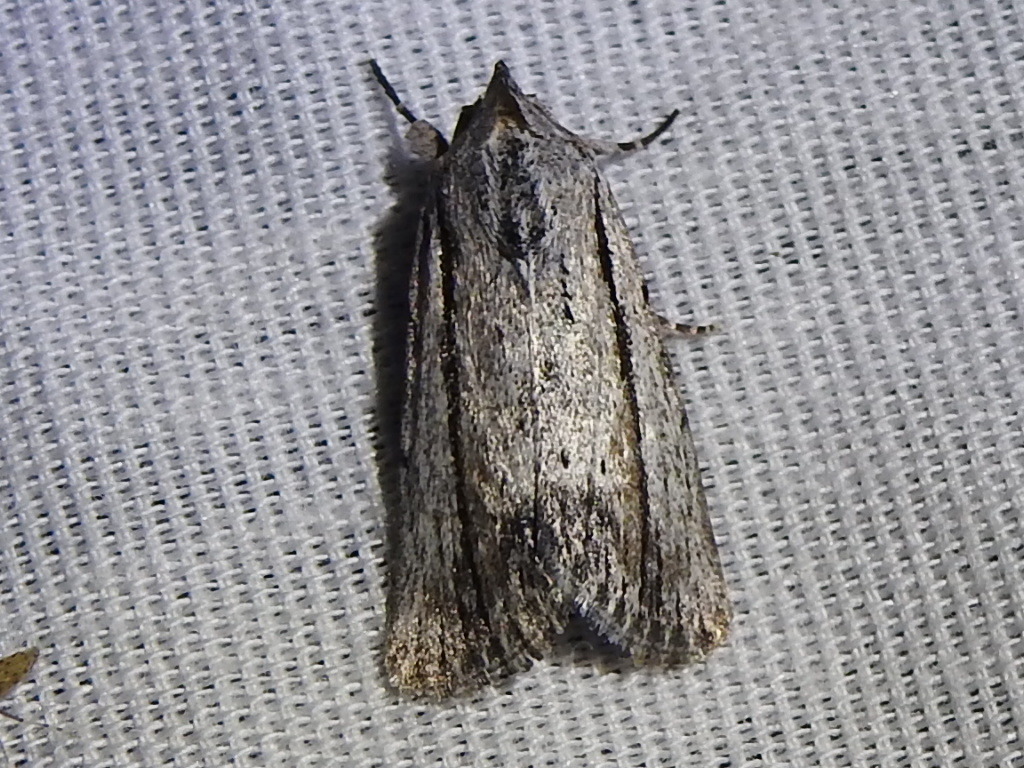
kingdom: Animalia
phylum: Arthropoda
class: Insecta
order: Lepidoptera
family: Noctuidae
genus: Catabenoides
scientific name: Catabenoides terminellus
